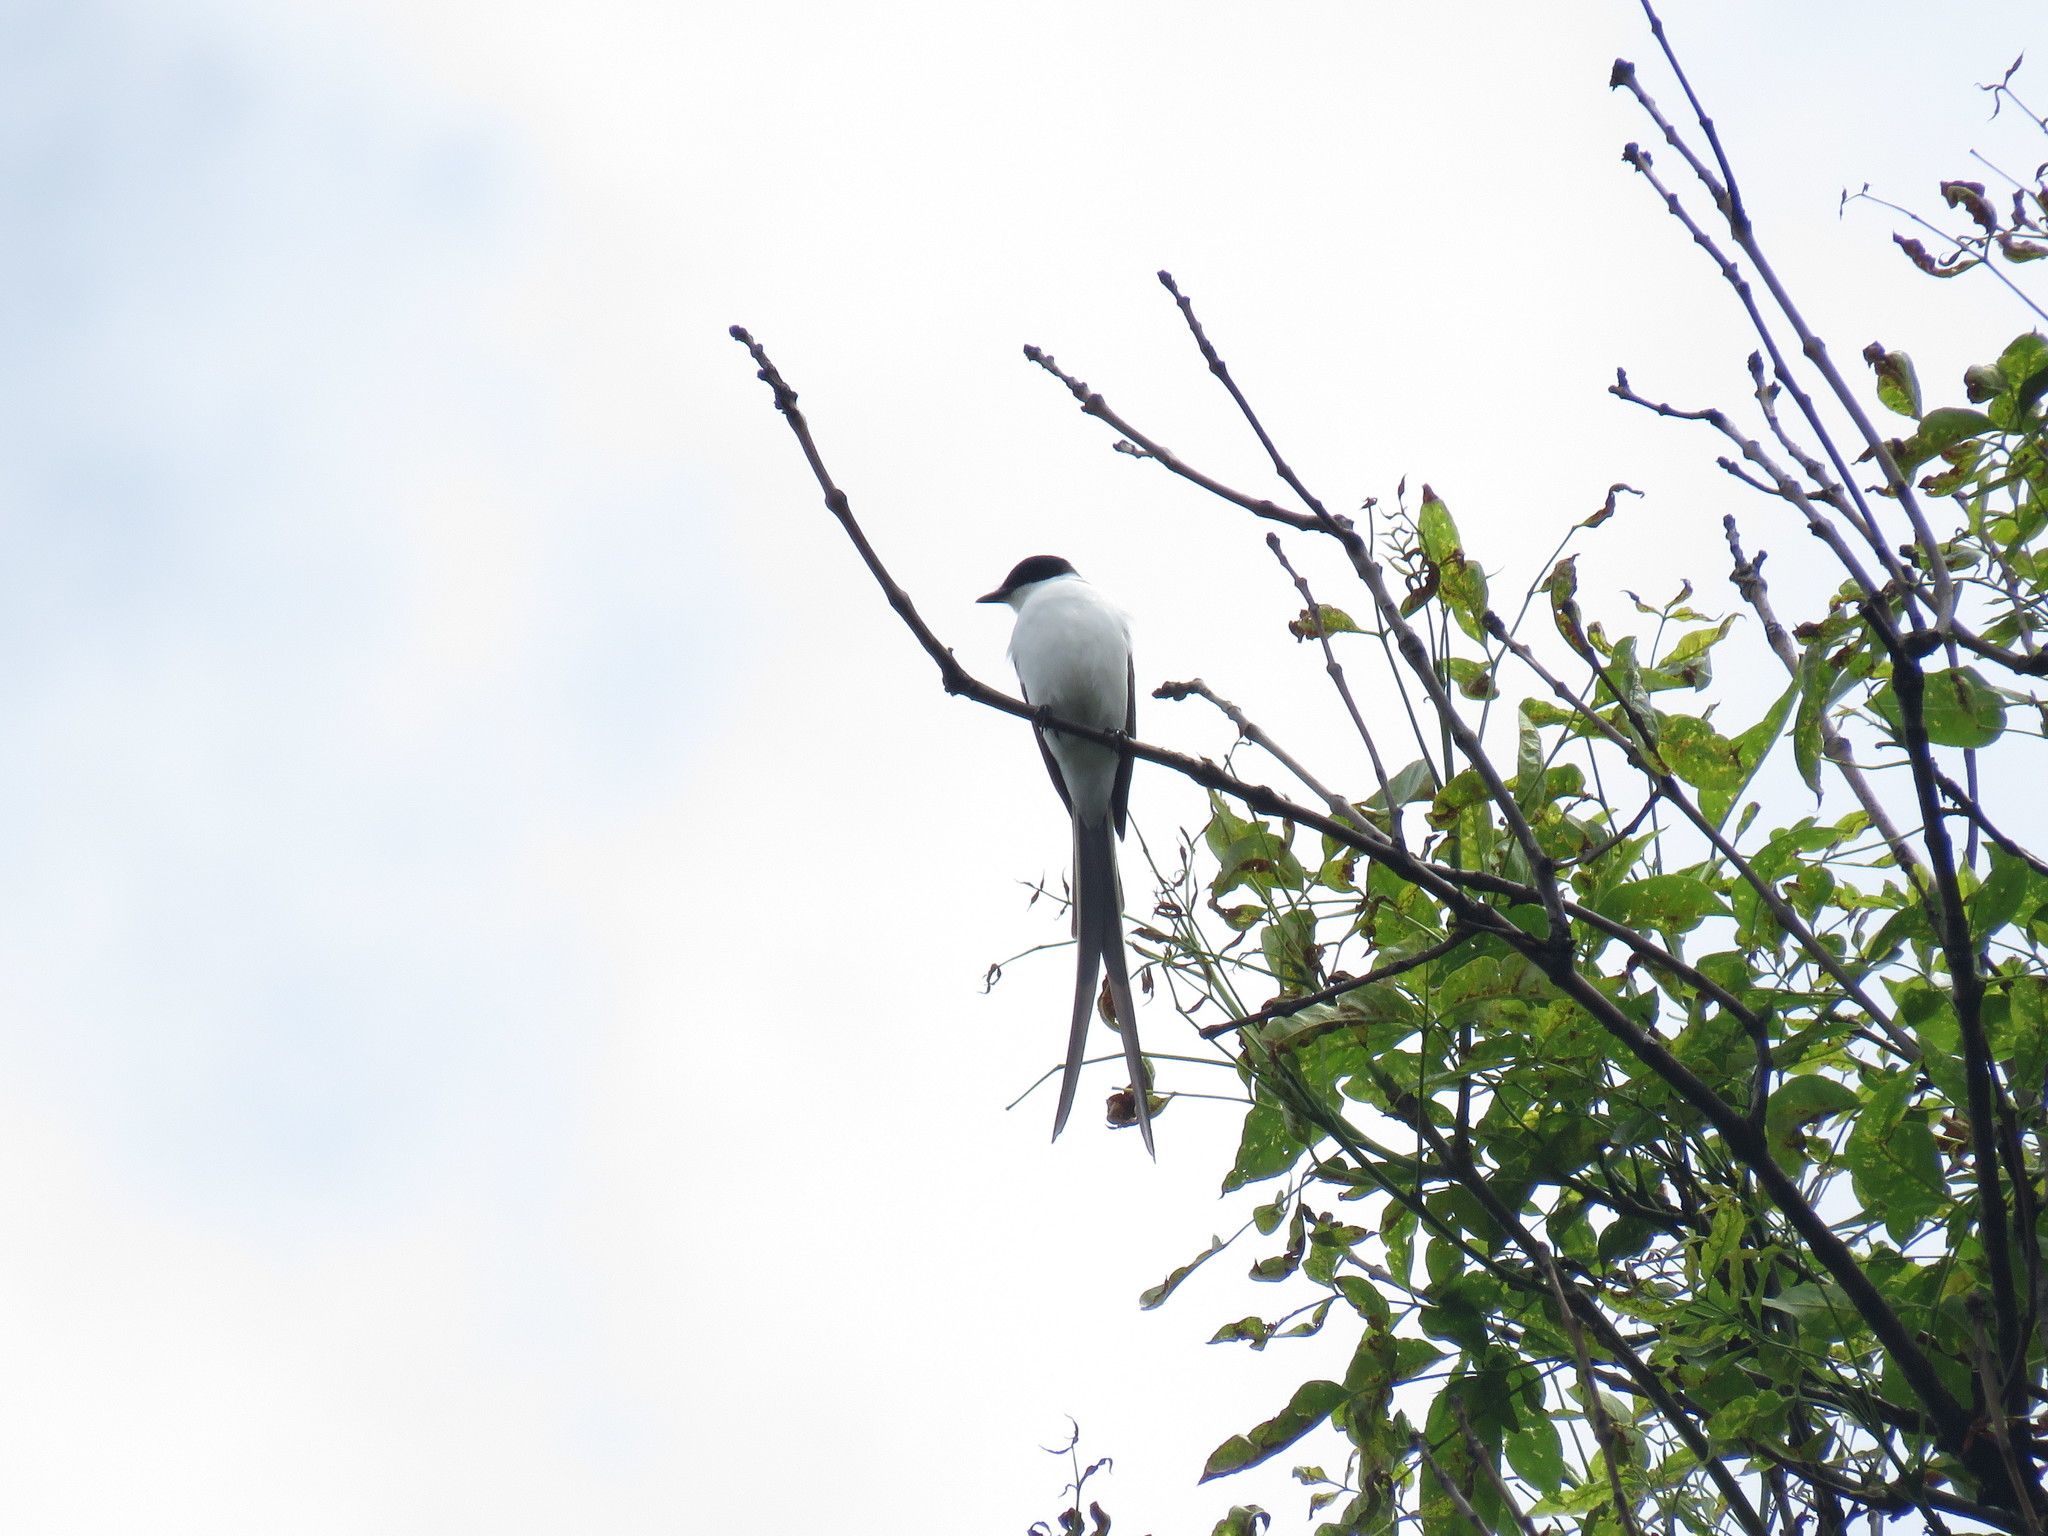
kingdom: Animalia
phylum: Chordata
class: Aves
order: Passeriformes
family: Tyrannidae
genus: Tyrannus
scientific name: Tyrannus savana
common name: Fork-tailed flycatcher
